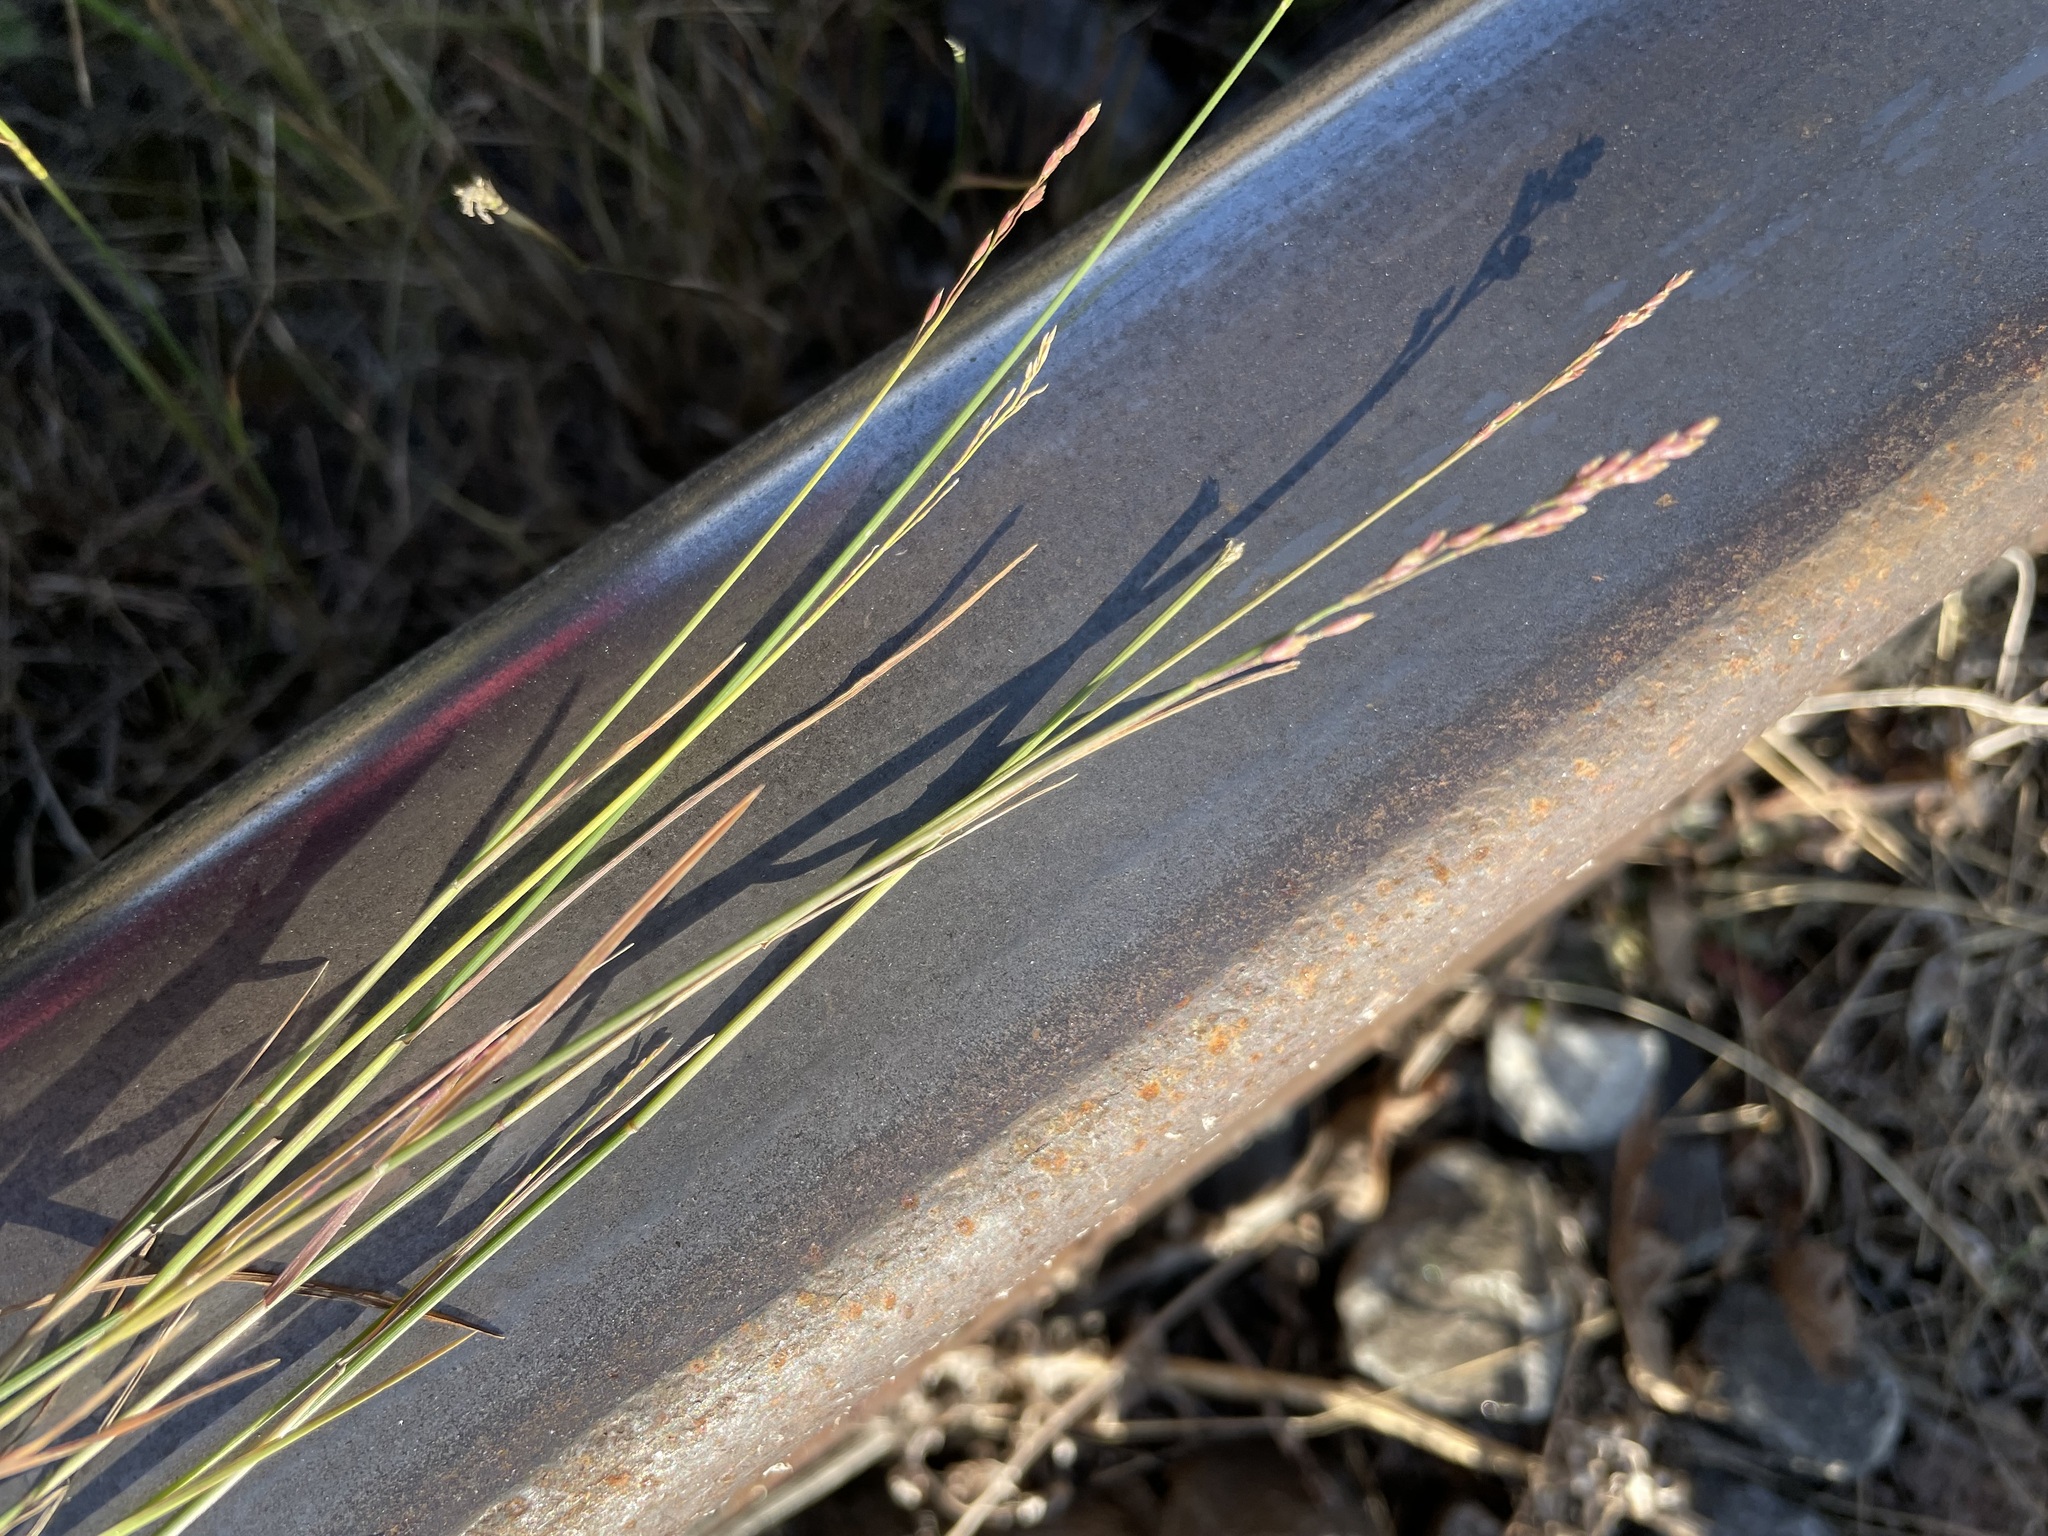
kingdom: Plantae
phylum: Tracheophyta
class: Liliopsida
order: Poales
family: Poaceae
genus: Poa
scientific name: Poa compressa
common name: Canada bluegrass
